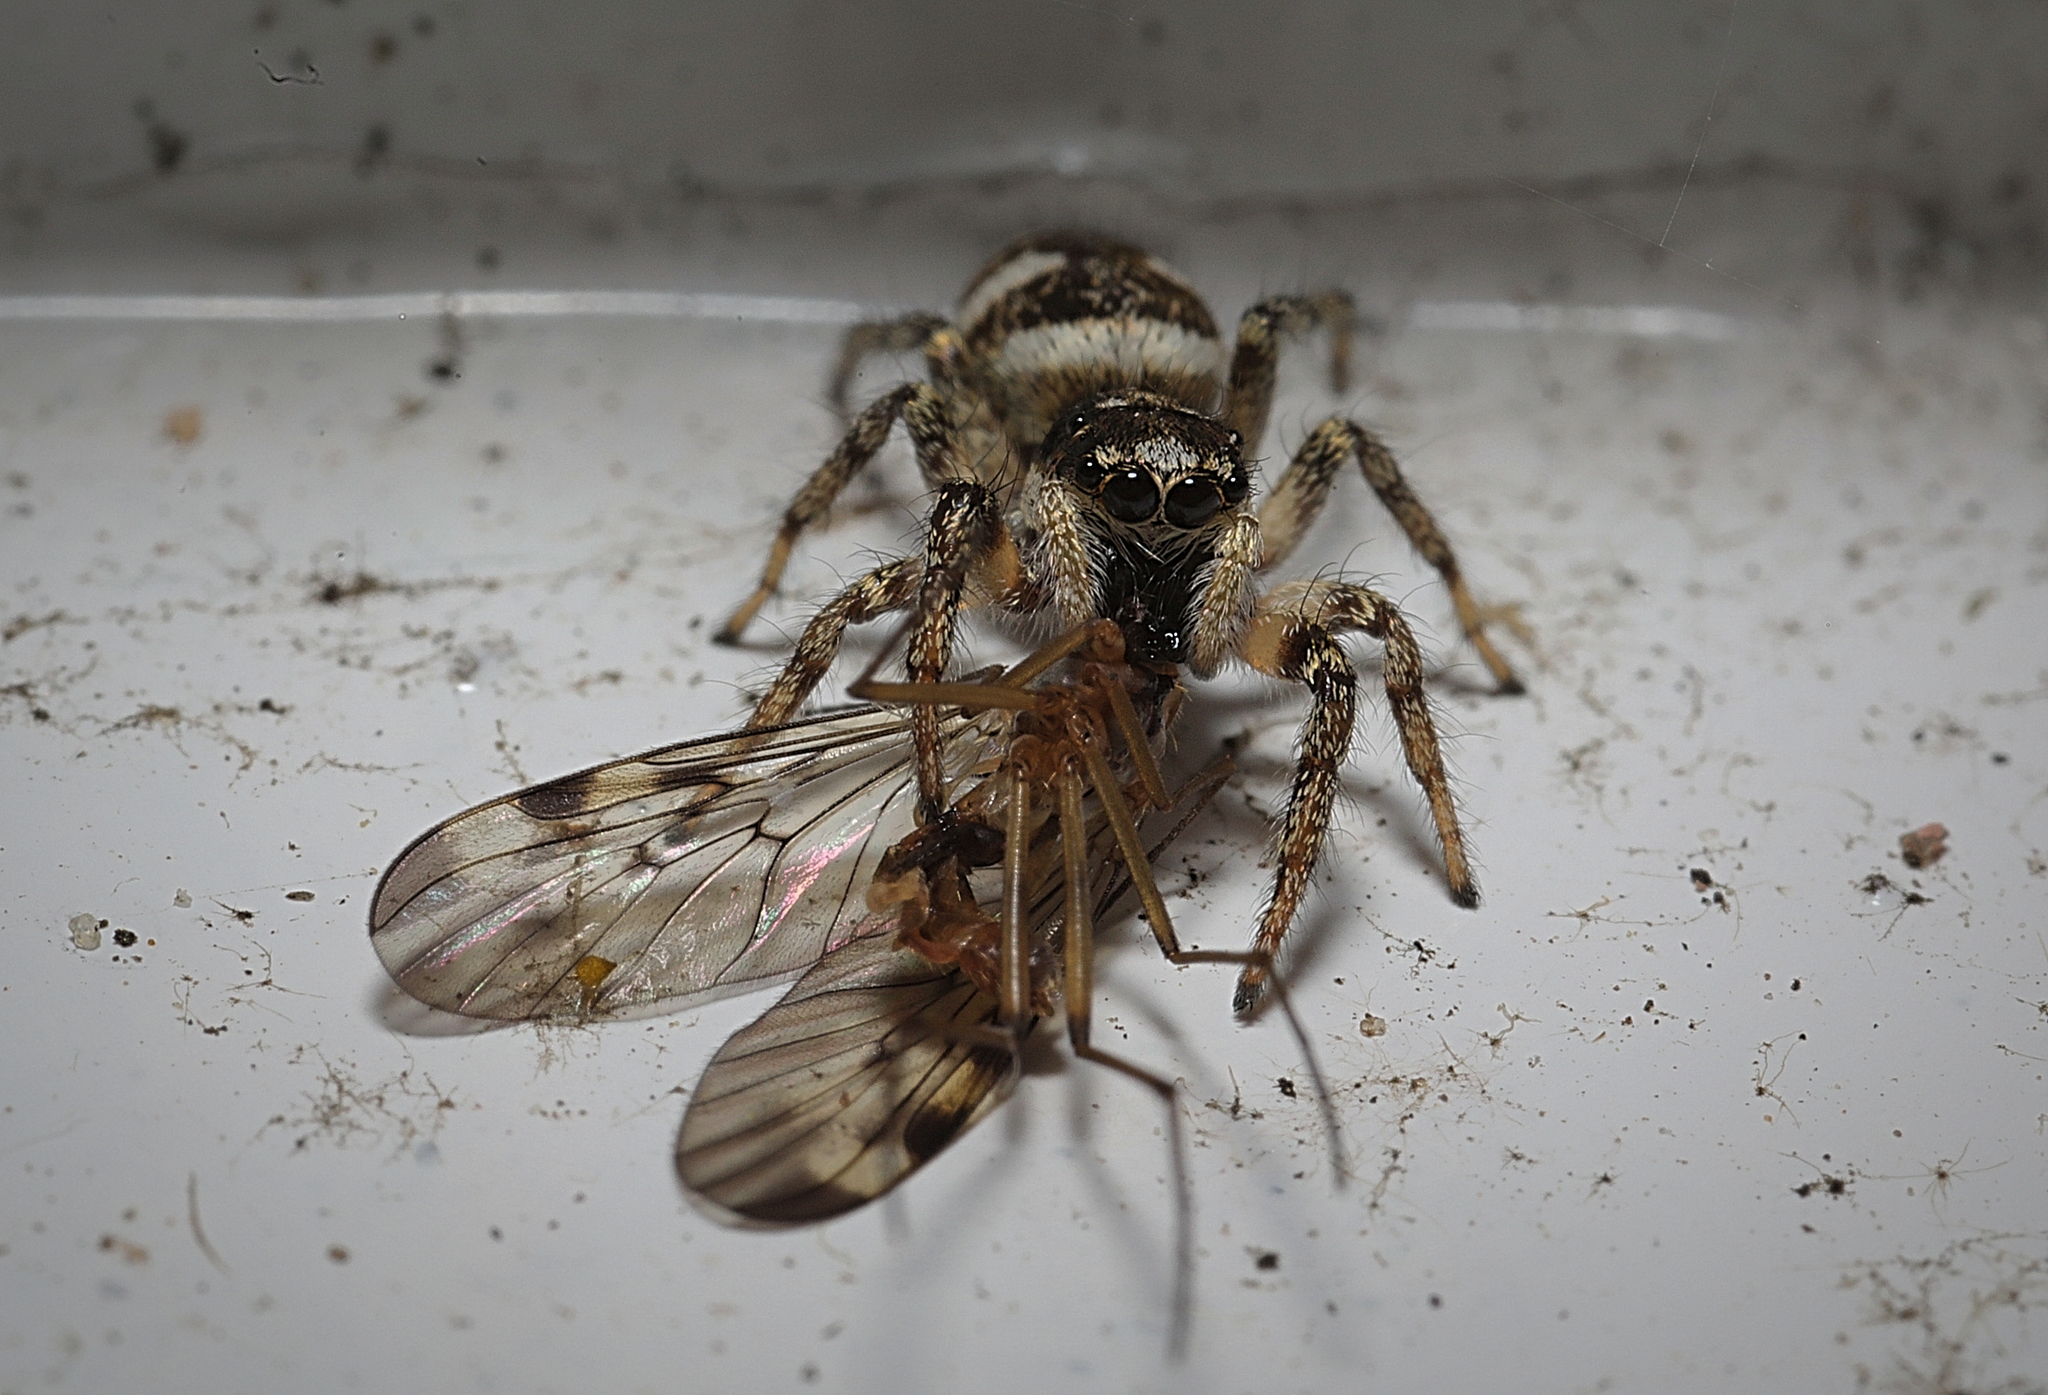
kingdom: Animalia
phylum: Arthropoda
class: Arachnida
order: Araneae
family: Salticidae
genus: Salticus
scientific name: Salticus scenicus
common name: Zebra jumper
